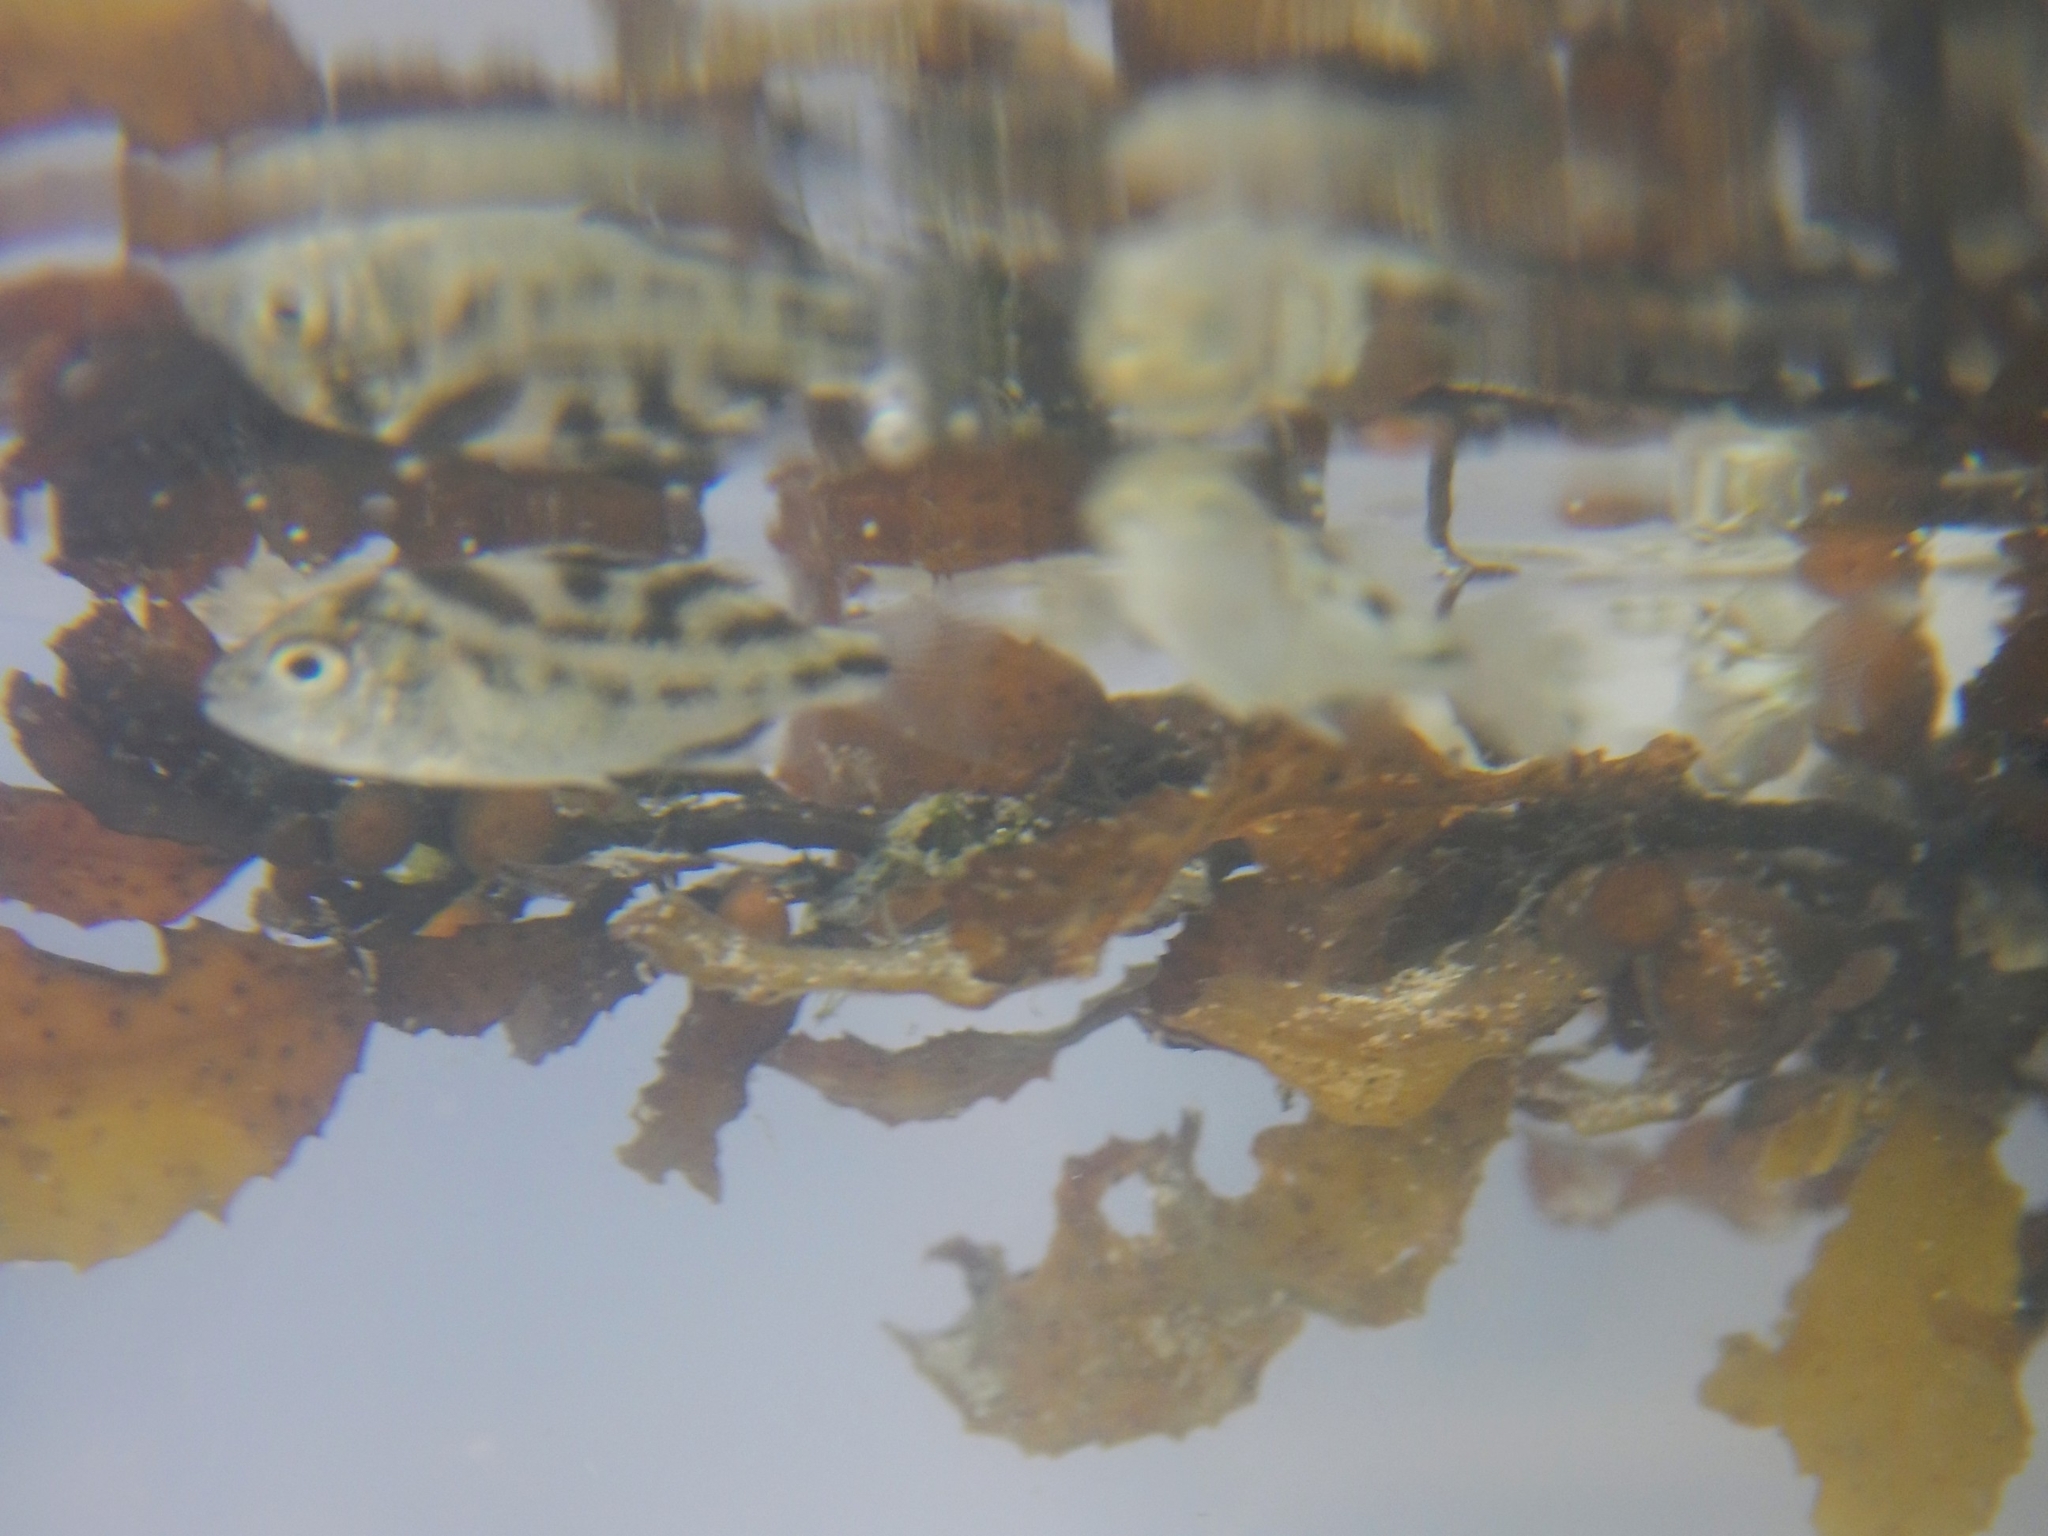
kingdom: Animalia
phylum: Chordata
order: Perciformes
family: Terapontidae
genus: Terapon
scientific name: Terapon jarbua
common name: Jarbua terapon
